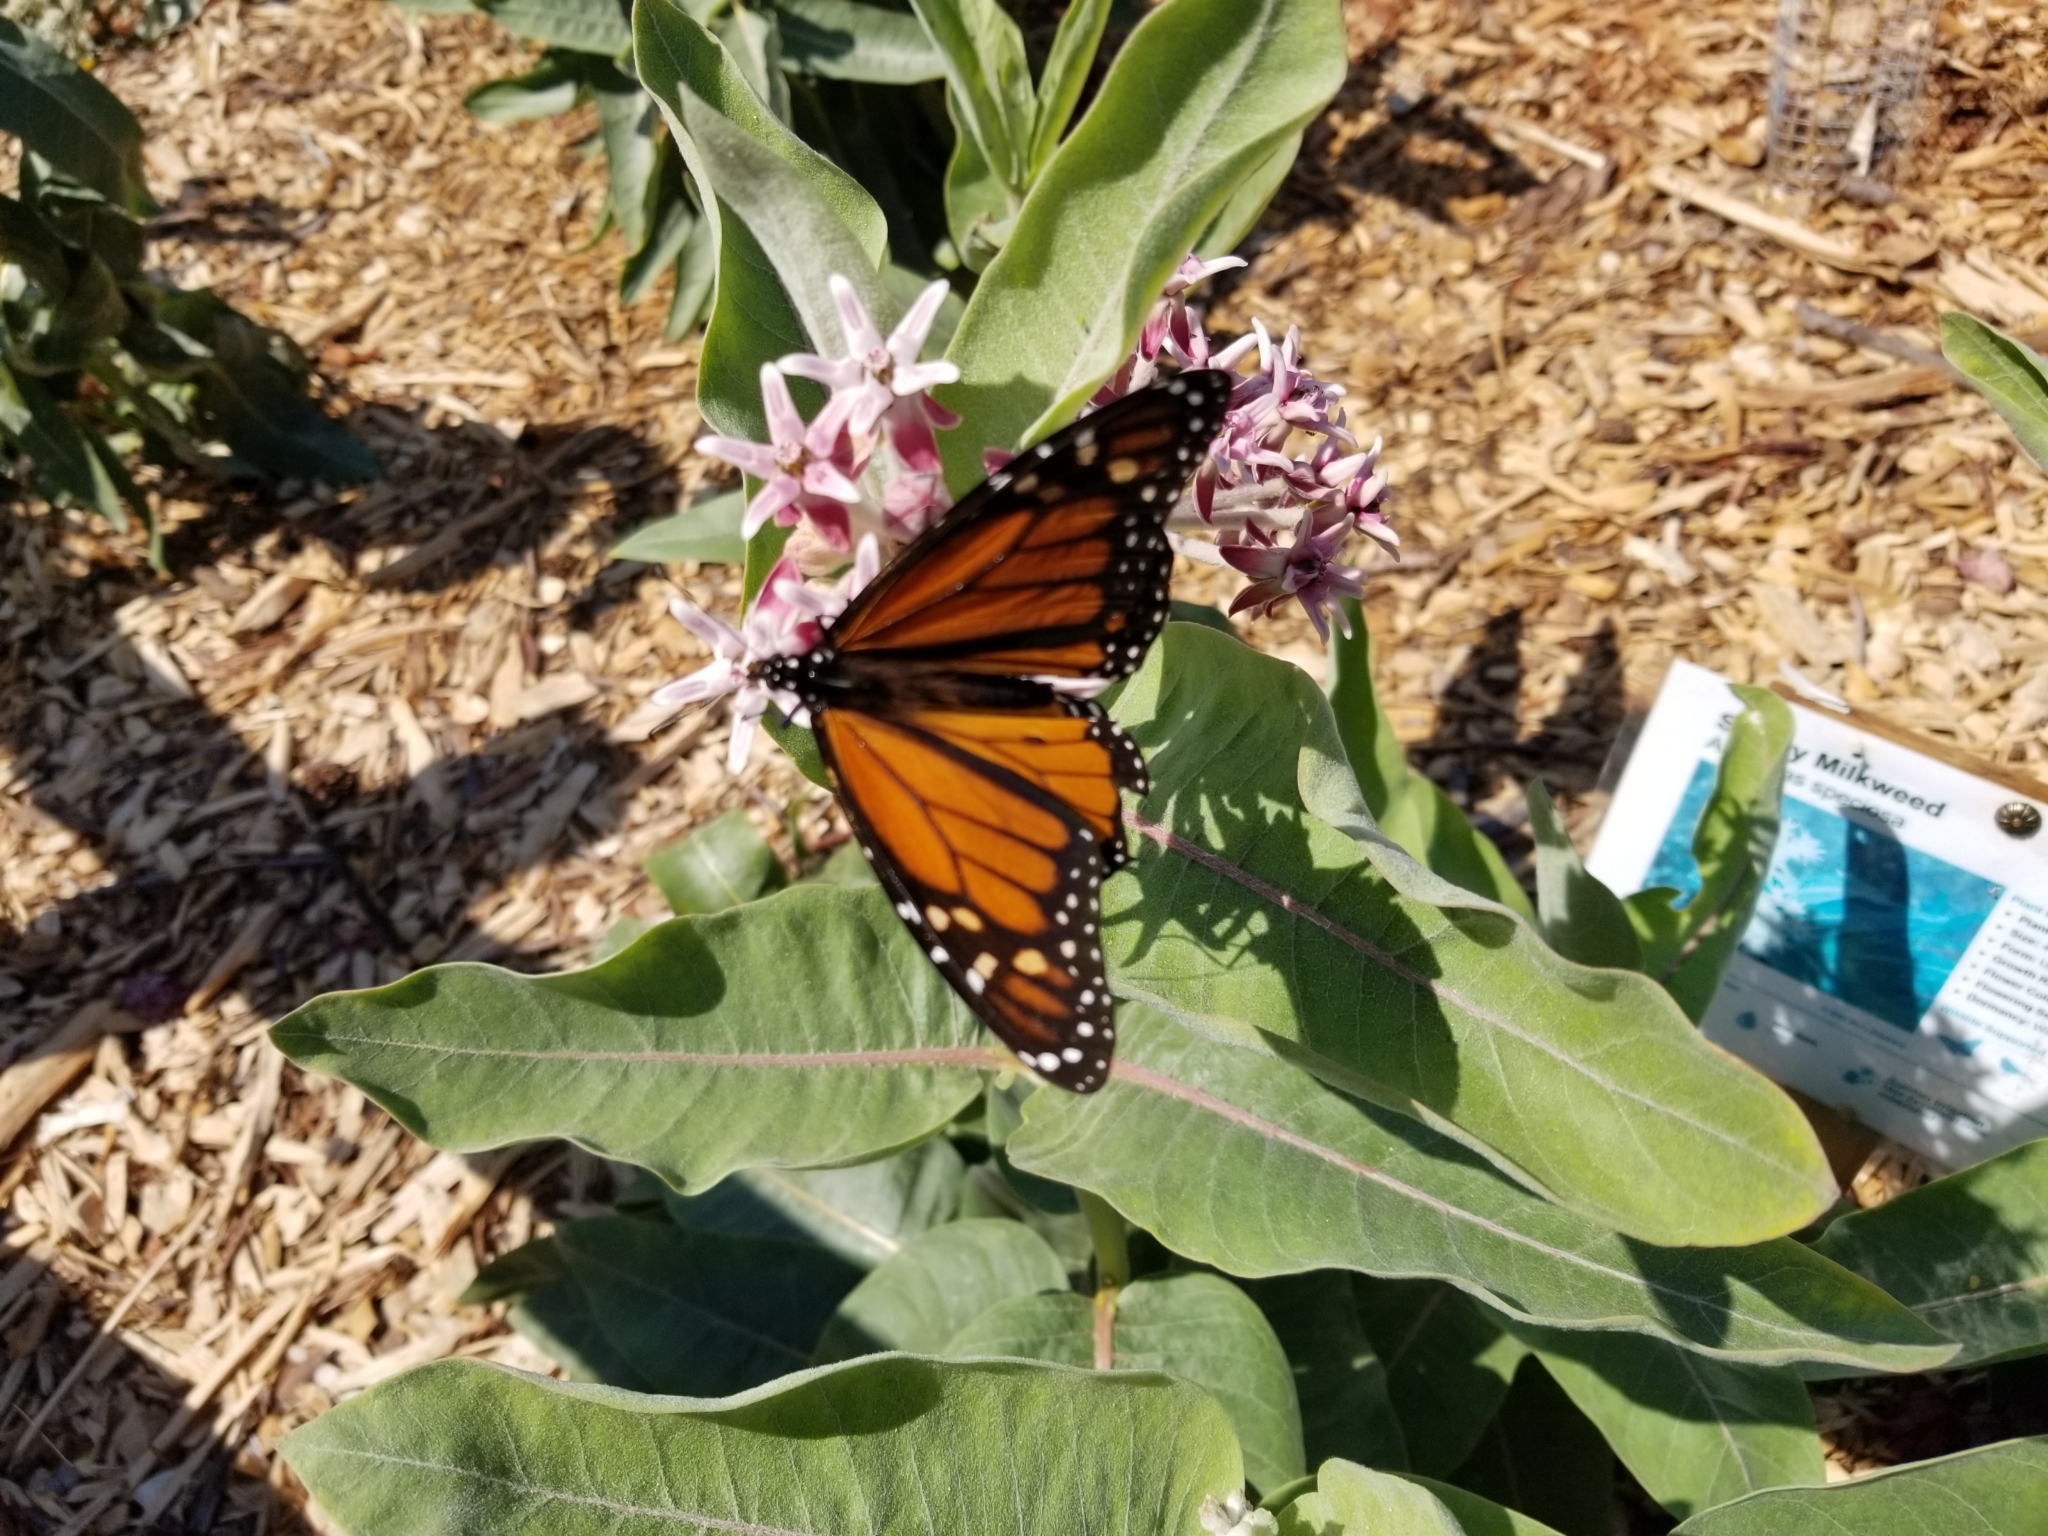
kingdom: Animalia
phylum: Arthropoda
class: Insecta
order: Lepidoptera
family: Nymphalidae
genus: Danaus
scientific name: Danaus plexippus
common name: Monarch
